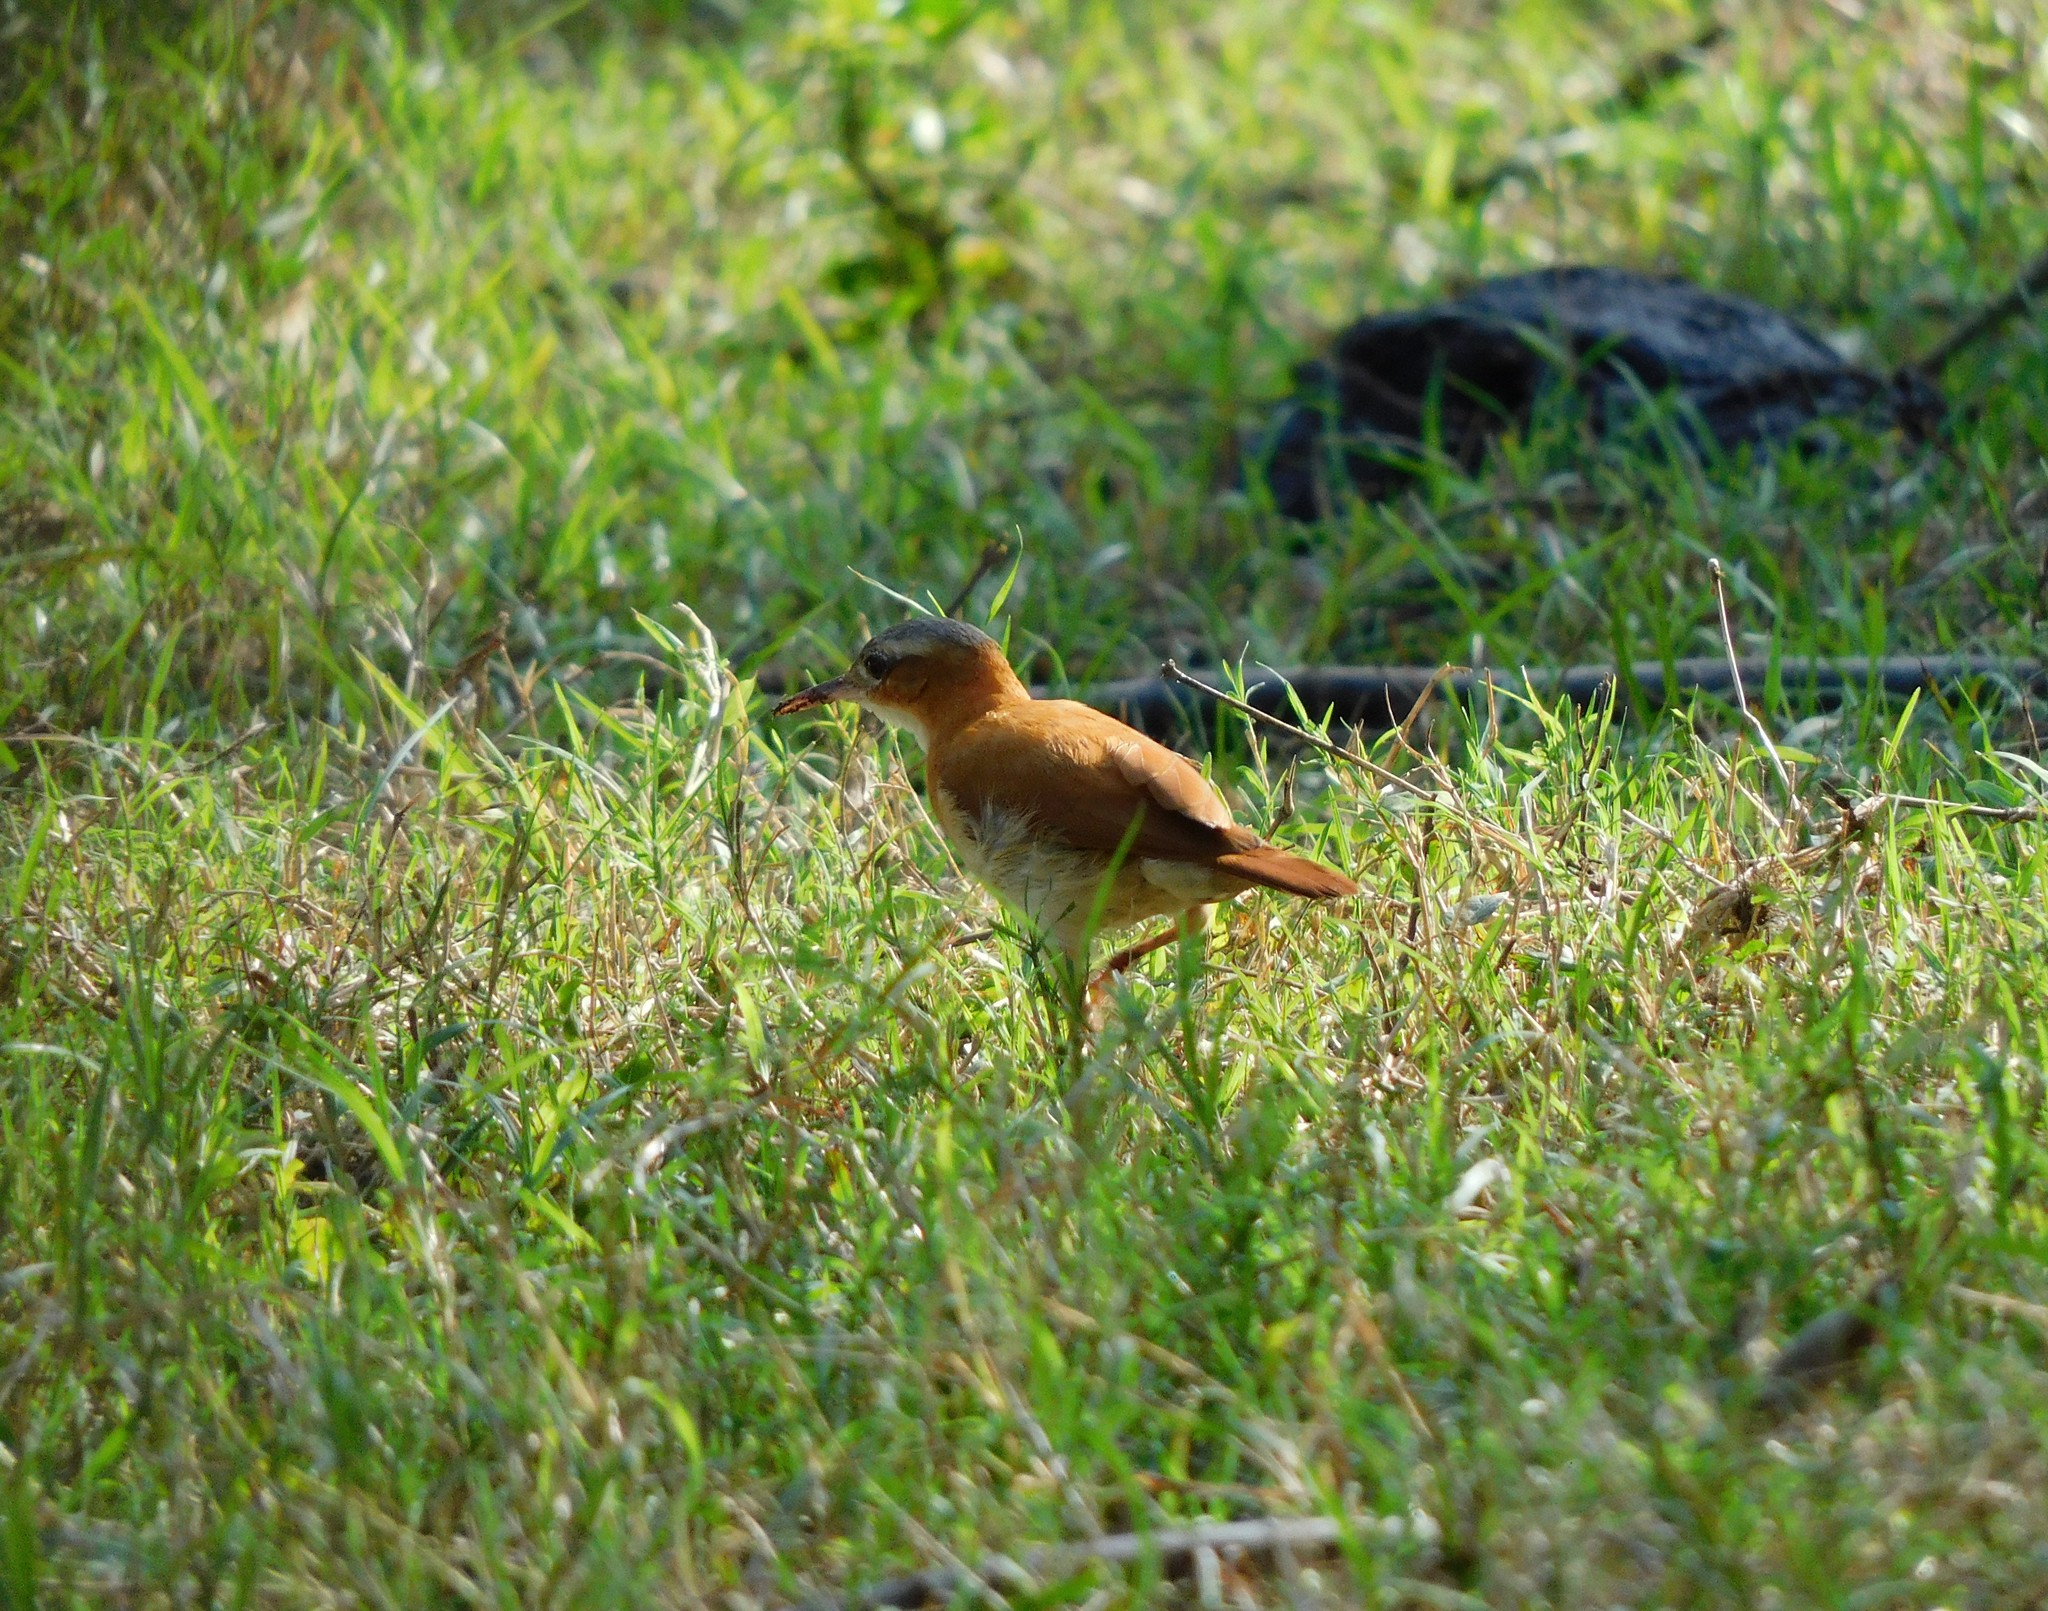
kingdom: Animalia
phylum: Chordata
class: Aves
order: Passeriformes
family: Furnariidae
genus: Furnarius
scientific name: Furnarius longirostris
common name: Caribbean hornero
